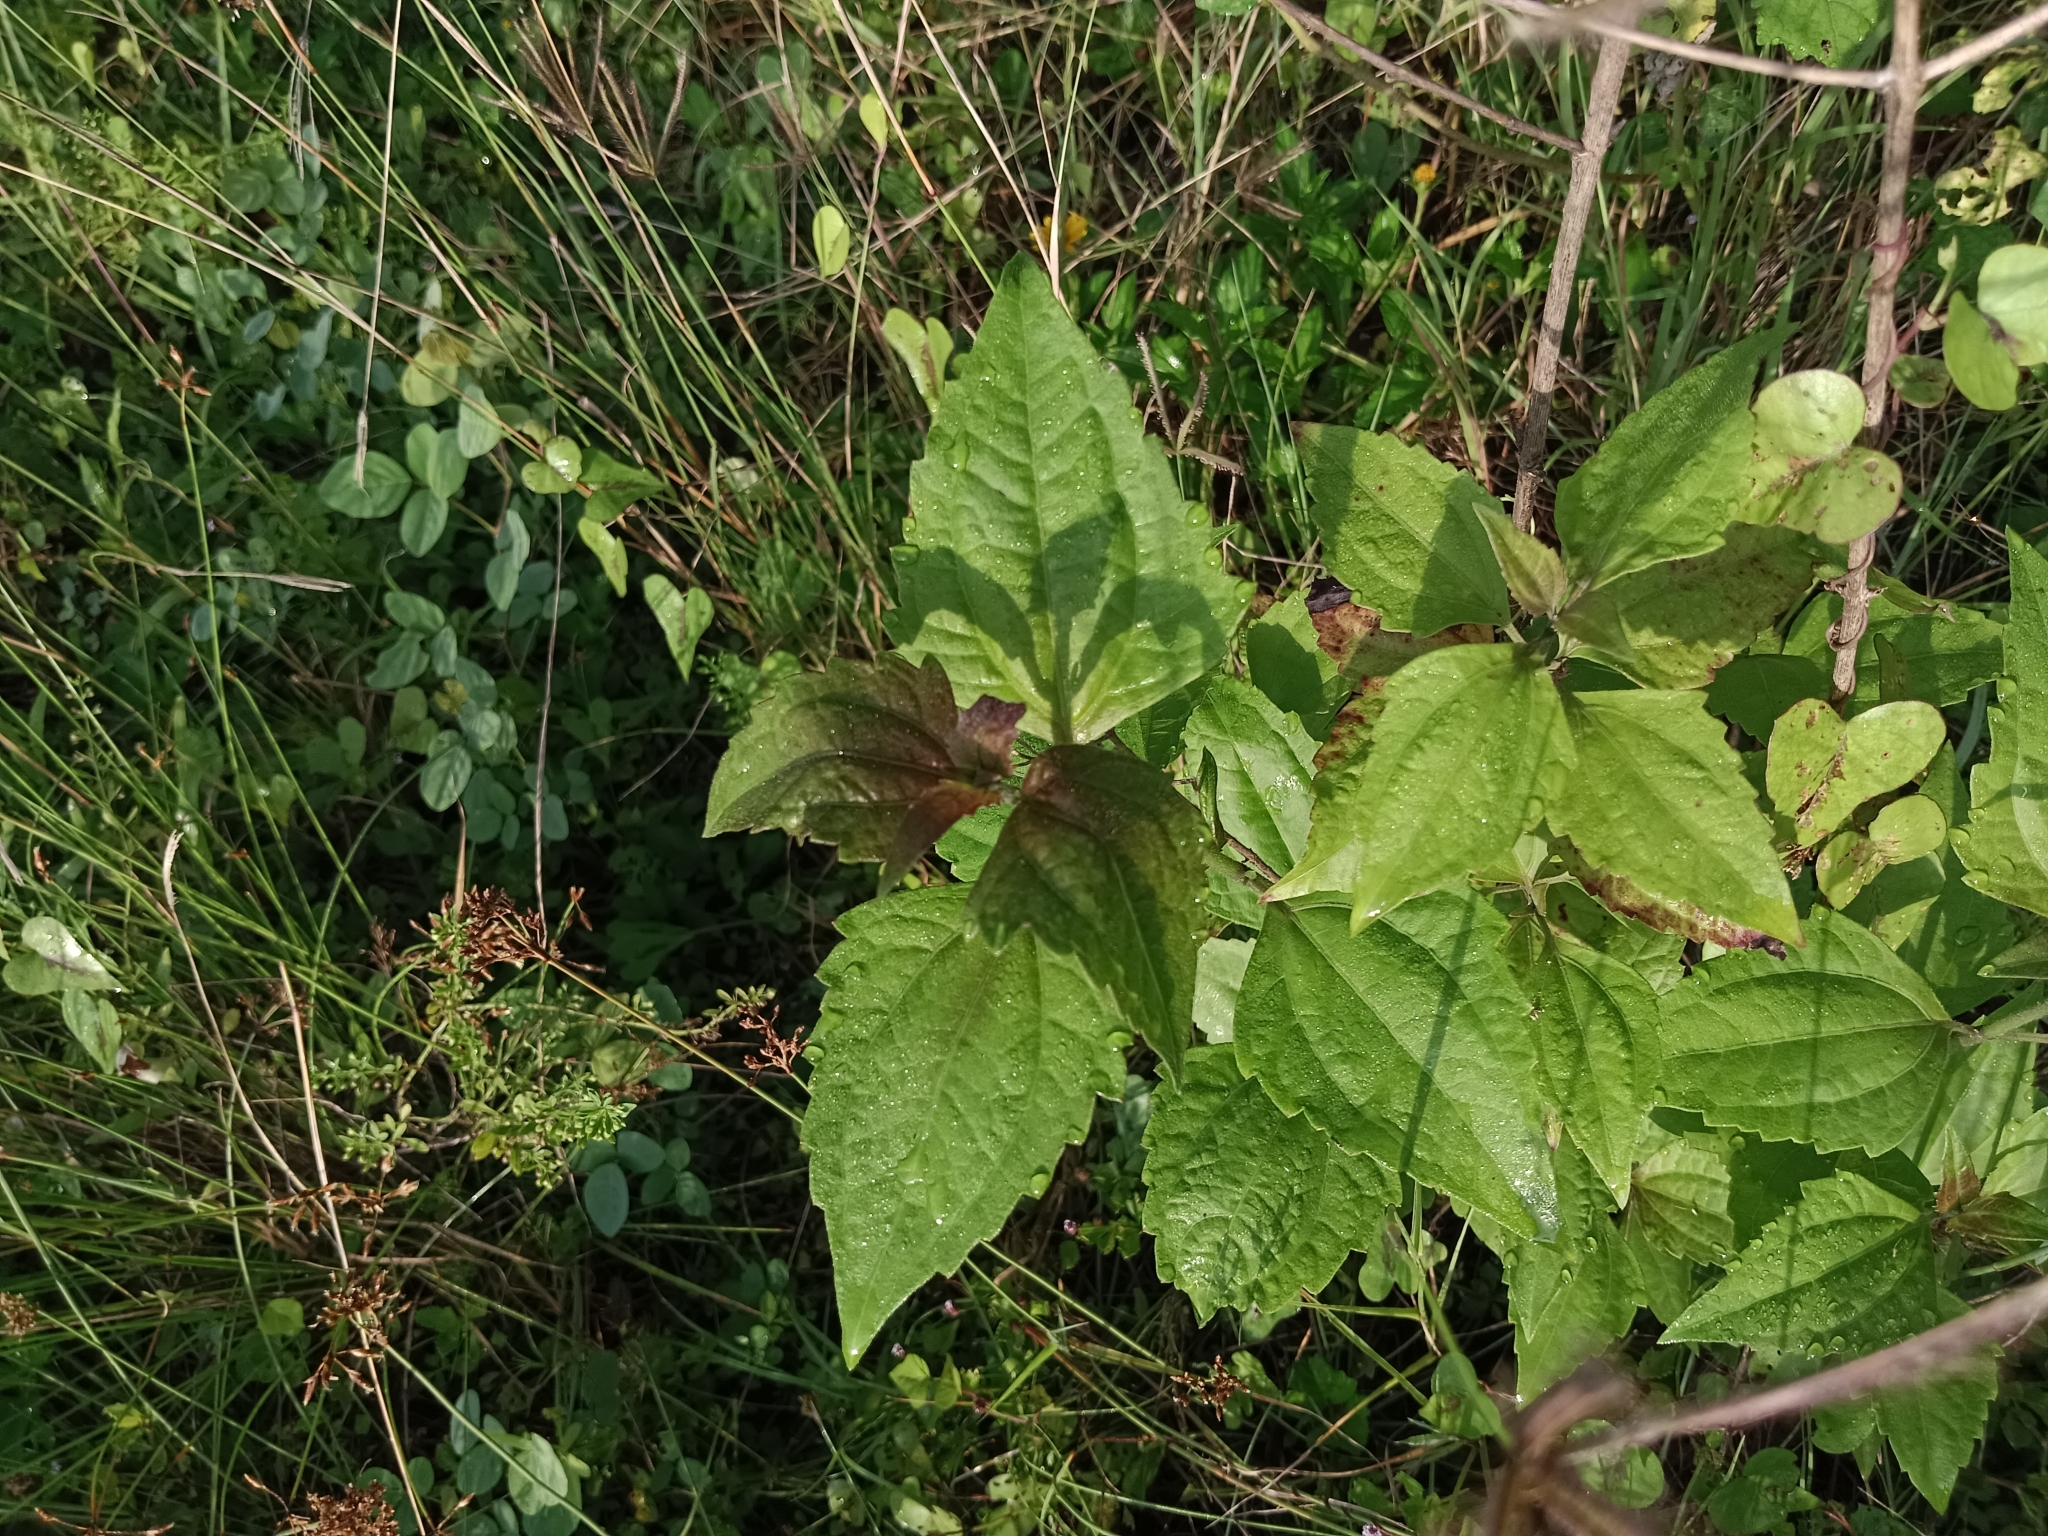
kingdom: Plantae
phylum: Tracheophyta
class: Magnoliopsida
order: Asterales
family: Asteraceae
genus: Chromolaena
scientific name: Chromolaena odorata
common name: Siamweed
